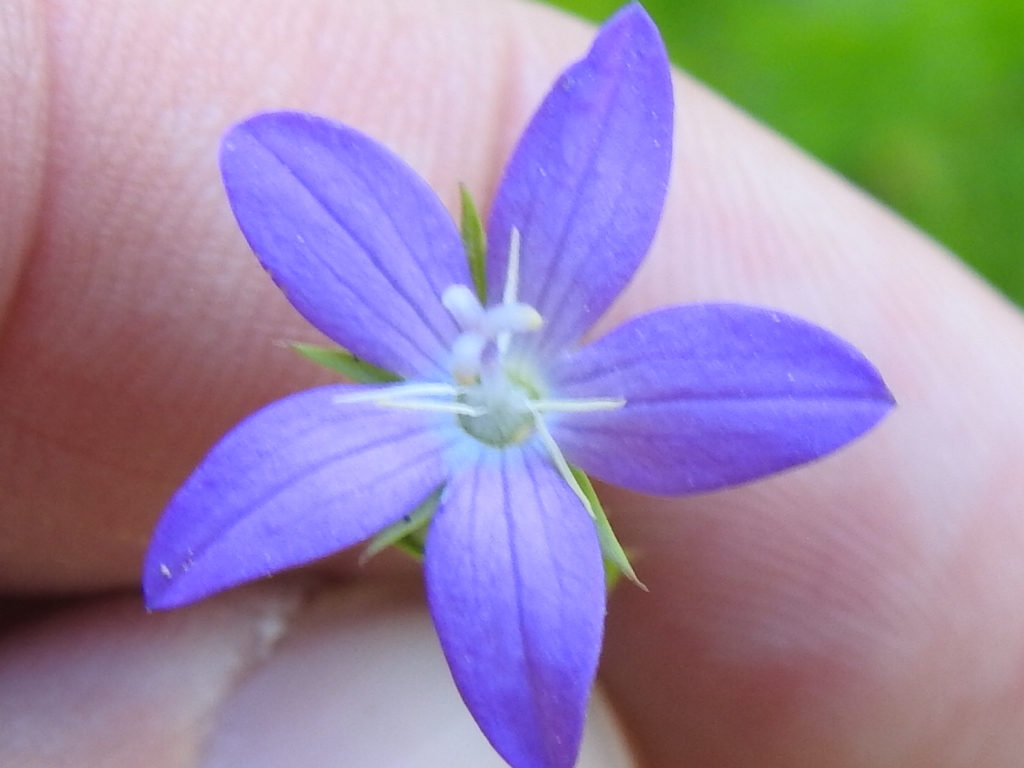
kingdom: Plantae
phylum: Tracheophyta
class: Magnoliopsida
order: Asterales
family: Campanulaceae
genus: Triodanis
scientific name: Triodanis biflora
